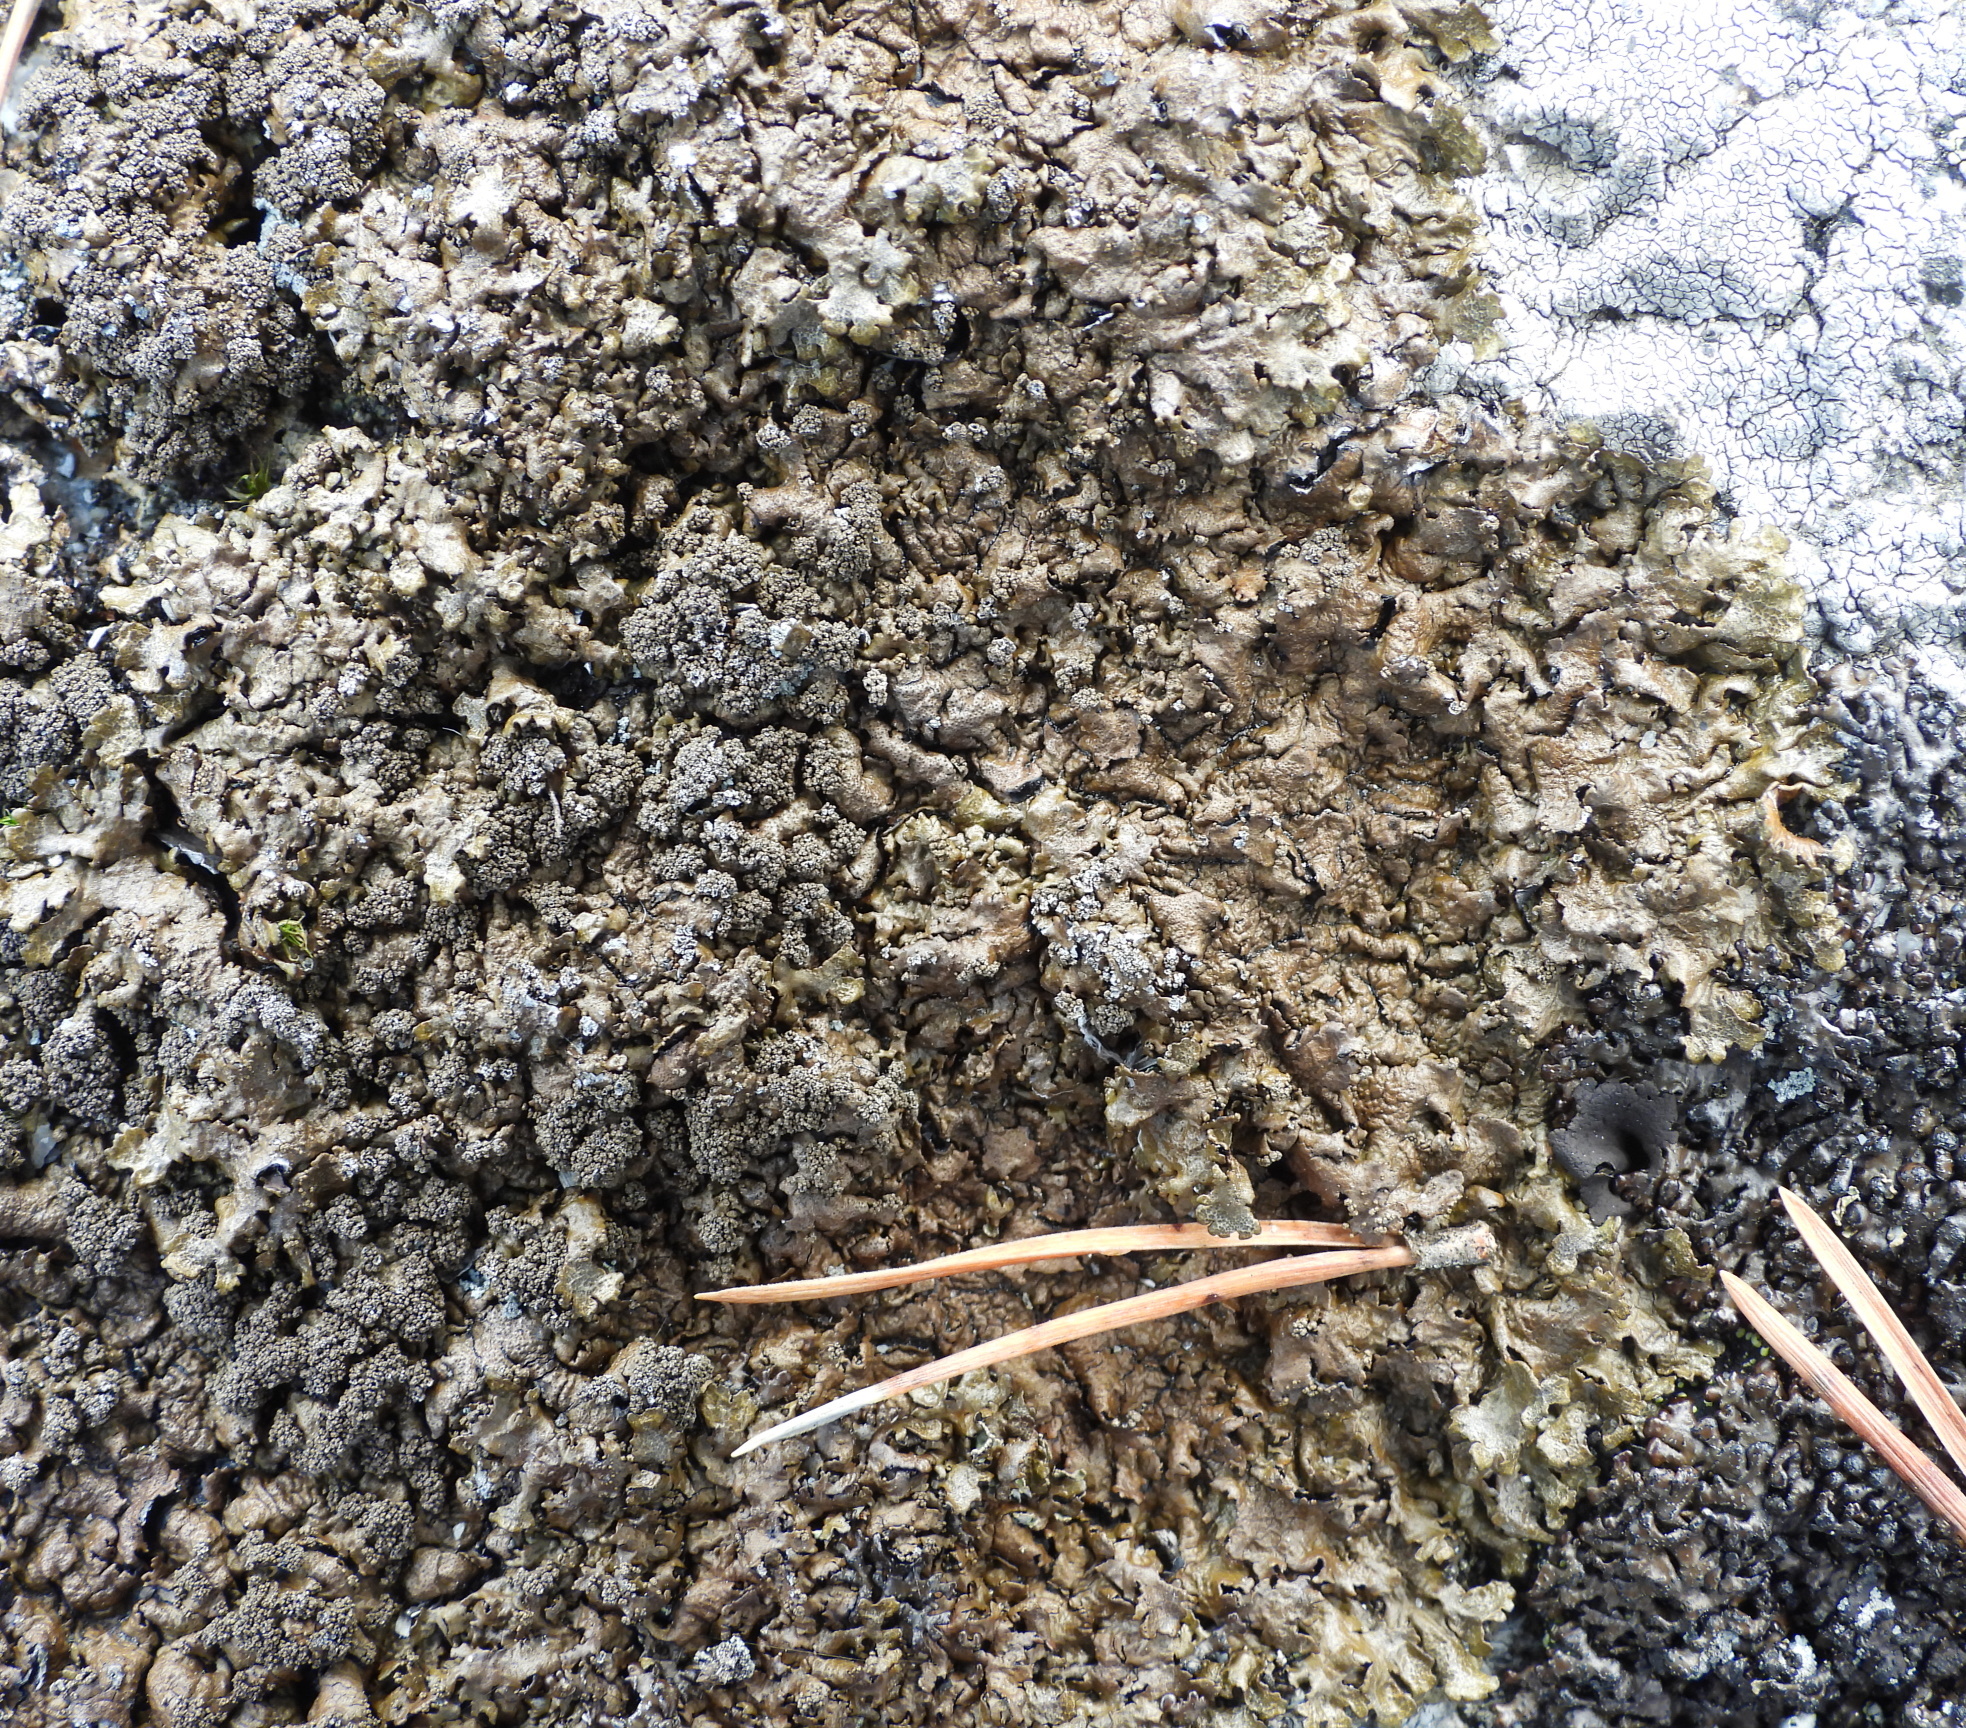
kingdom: Fungi
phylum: Ascomycota
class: Lecanoromycetes
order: Lecanorales
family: Parmeliaceae
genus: Xanthoparmelia
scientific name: Xanthoparmelia loxodes
